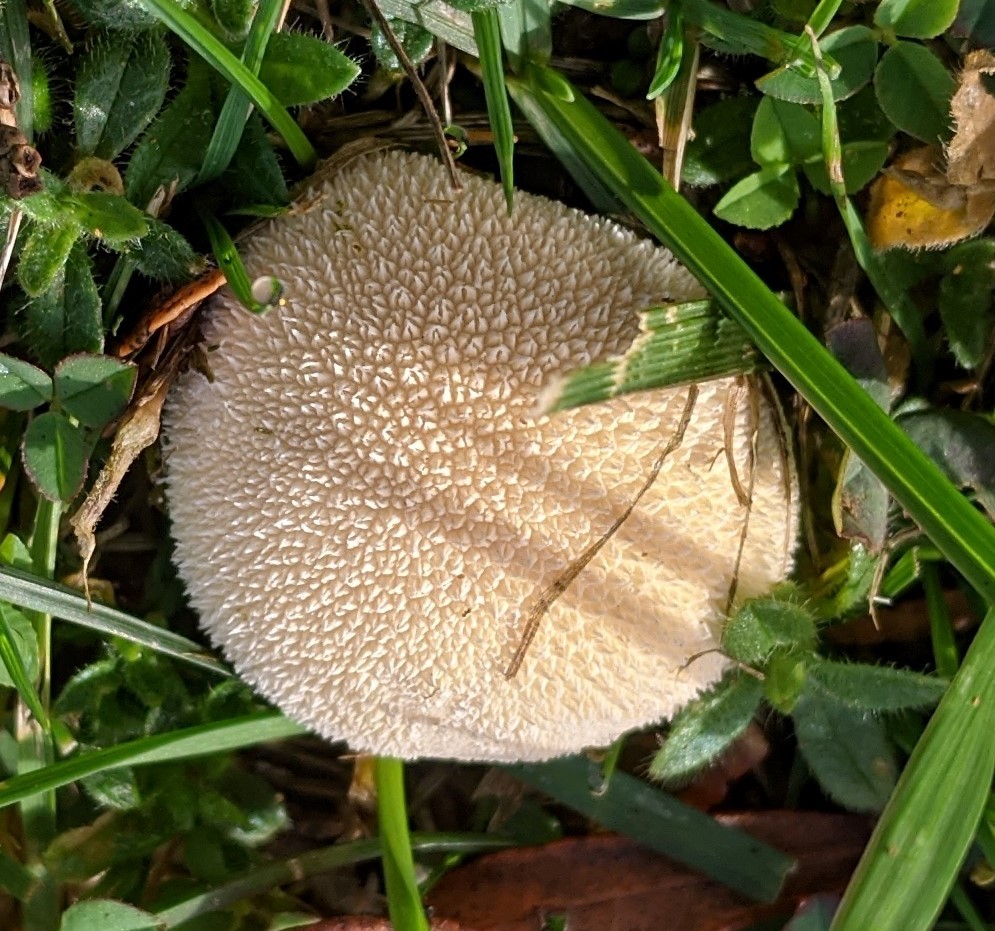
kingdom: Fungi
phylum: Basidiomycota
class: Agaricomycetes
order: Agaricales
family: Lycoperdaceae
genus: Lycoperdon
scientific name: Lycoperdon perlatum
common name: Common puffball
